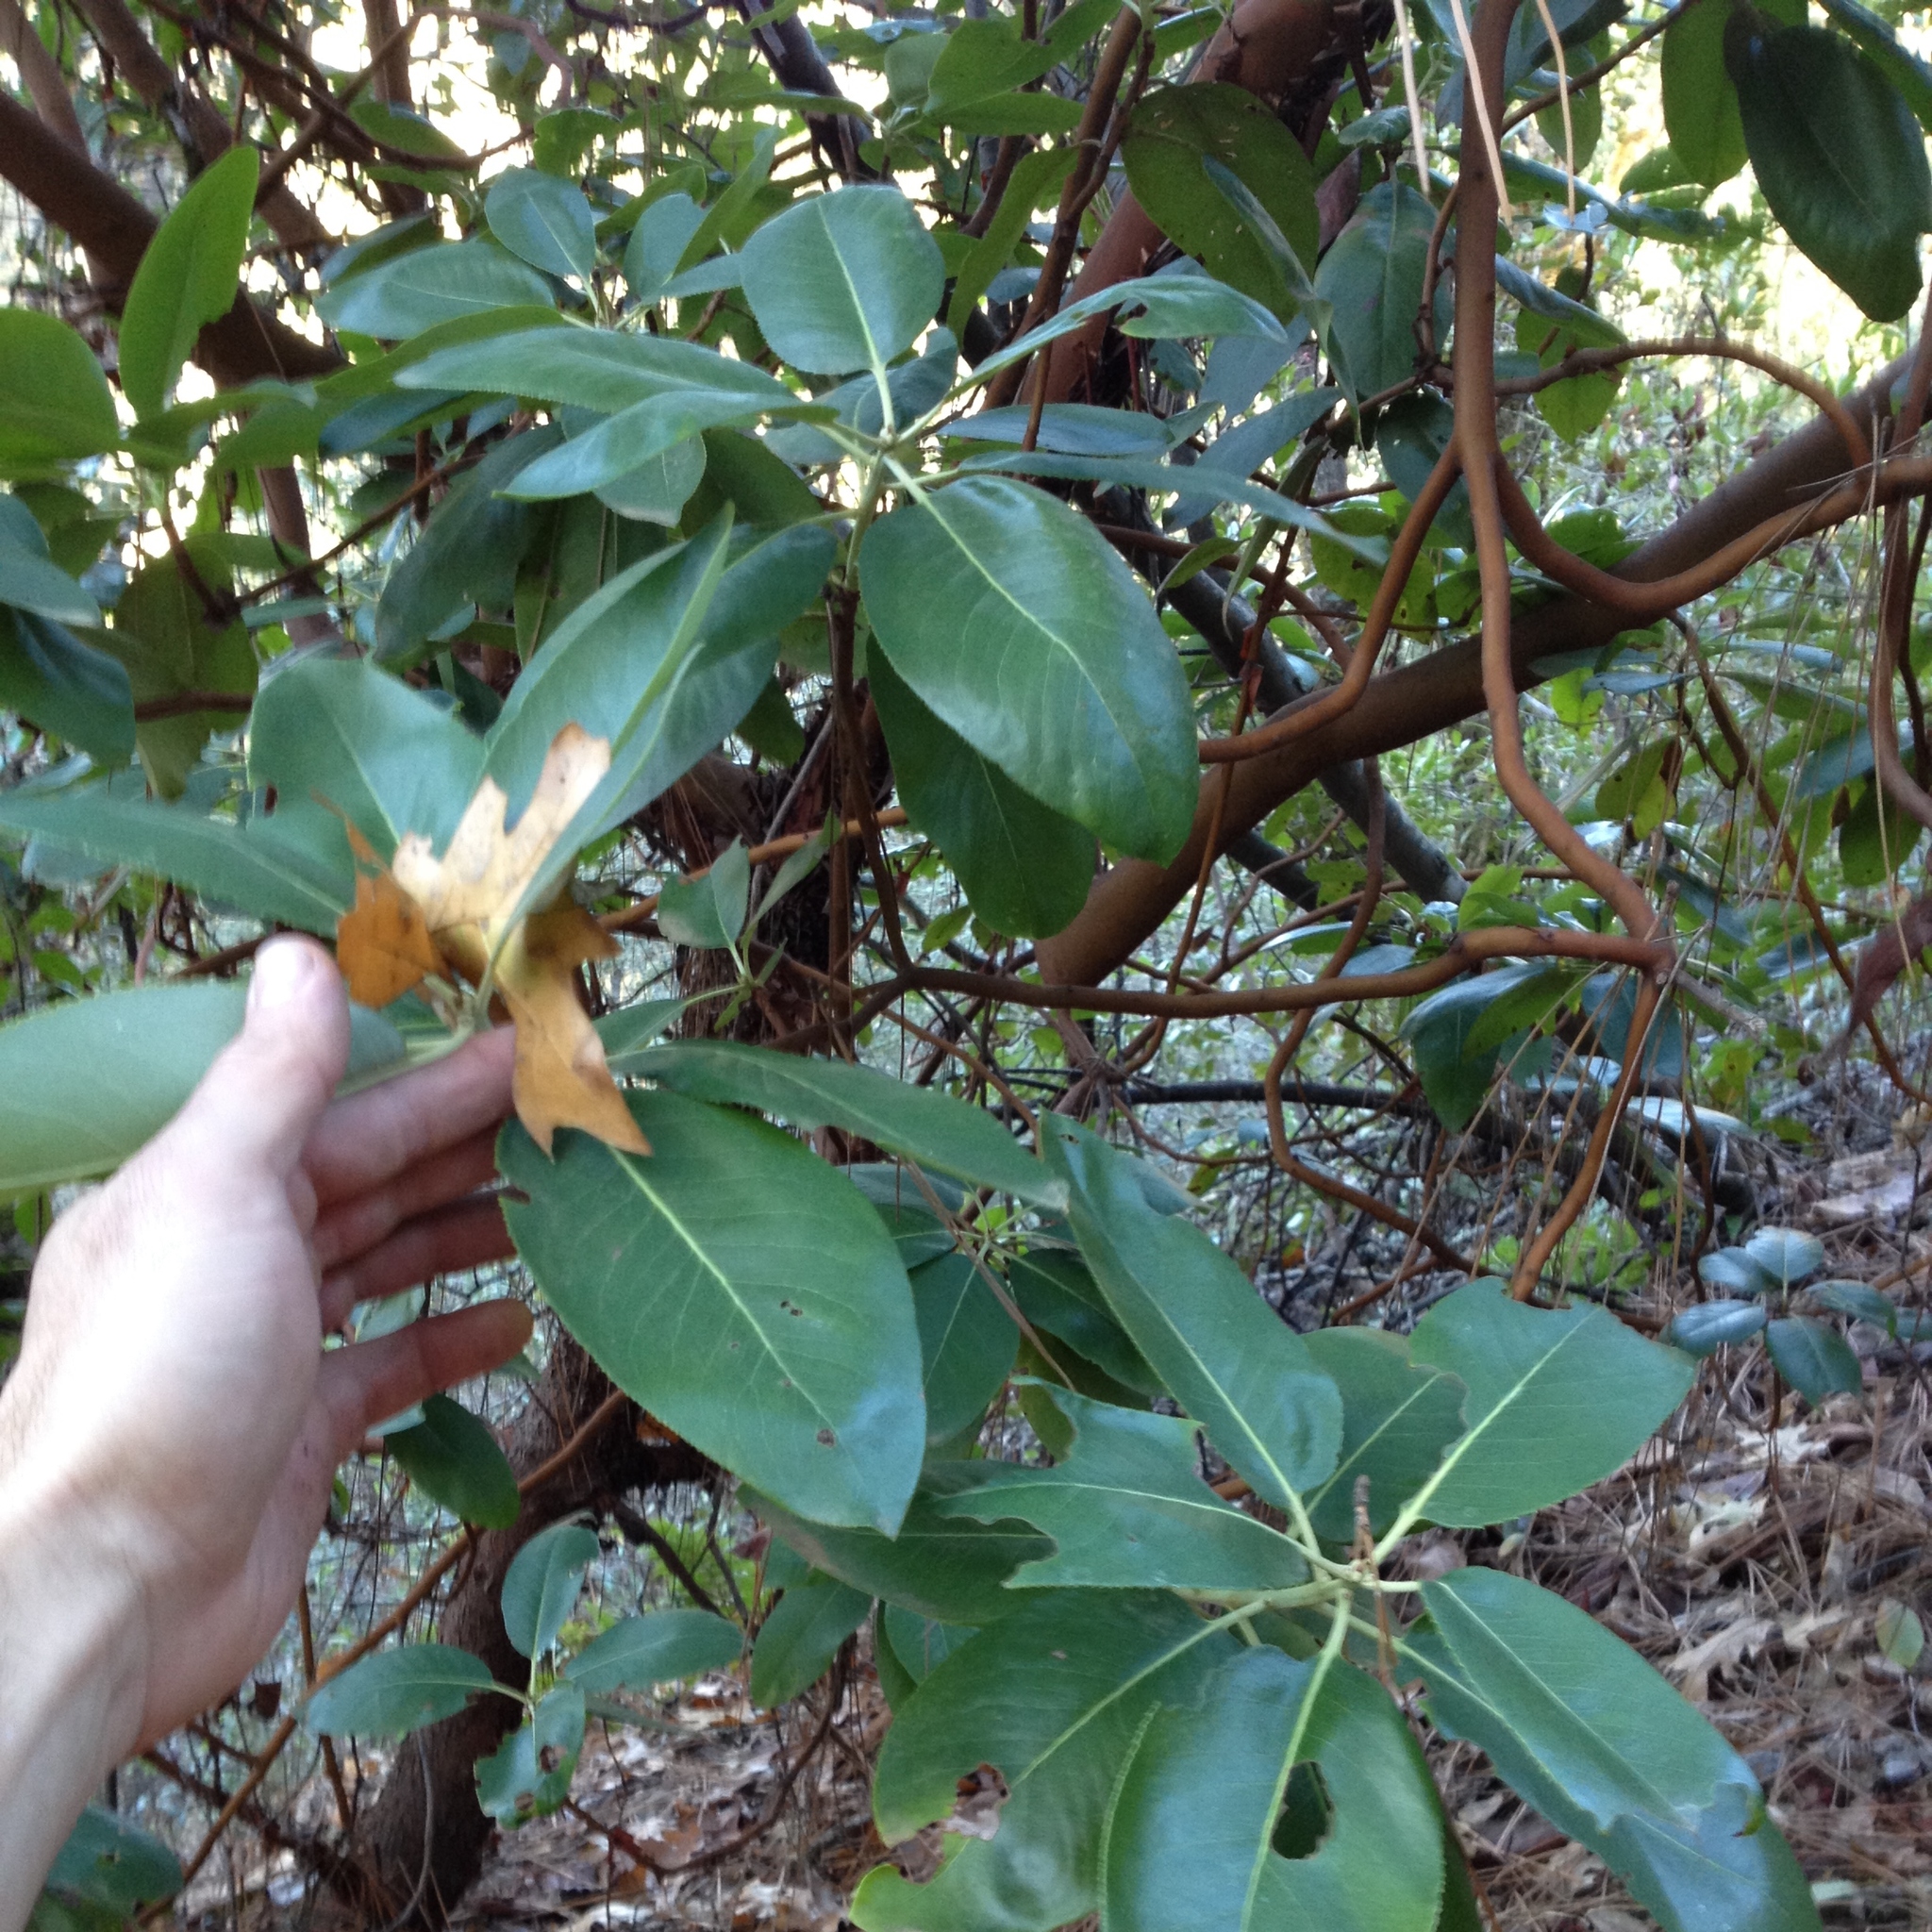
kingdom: Plantae
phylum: Tracheophyta
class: Magnoliopsida
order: Ericales
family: Ericaceae
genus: Arbutus
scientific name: Arbutus menziesii
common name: Pacific madrone
